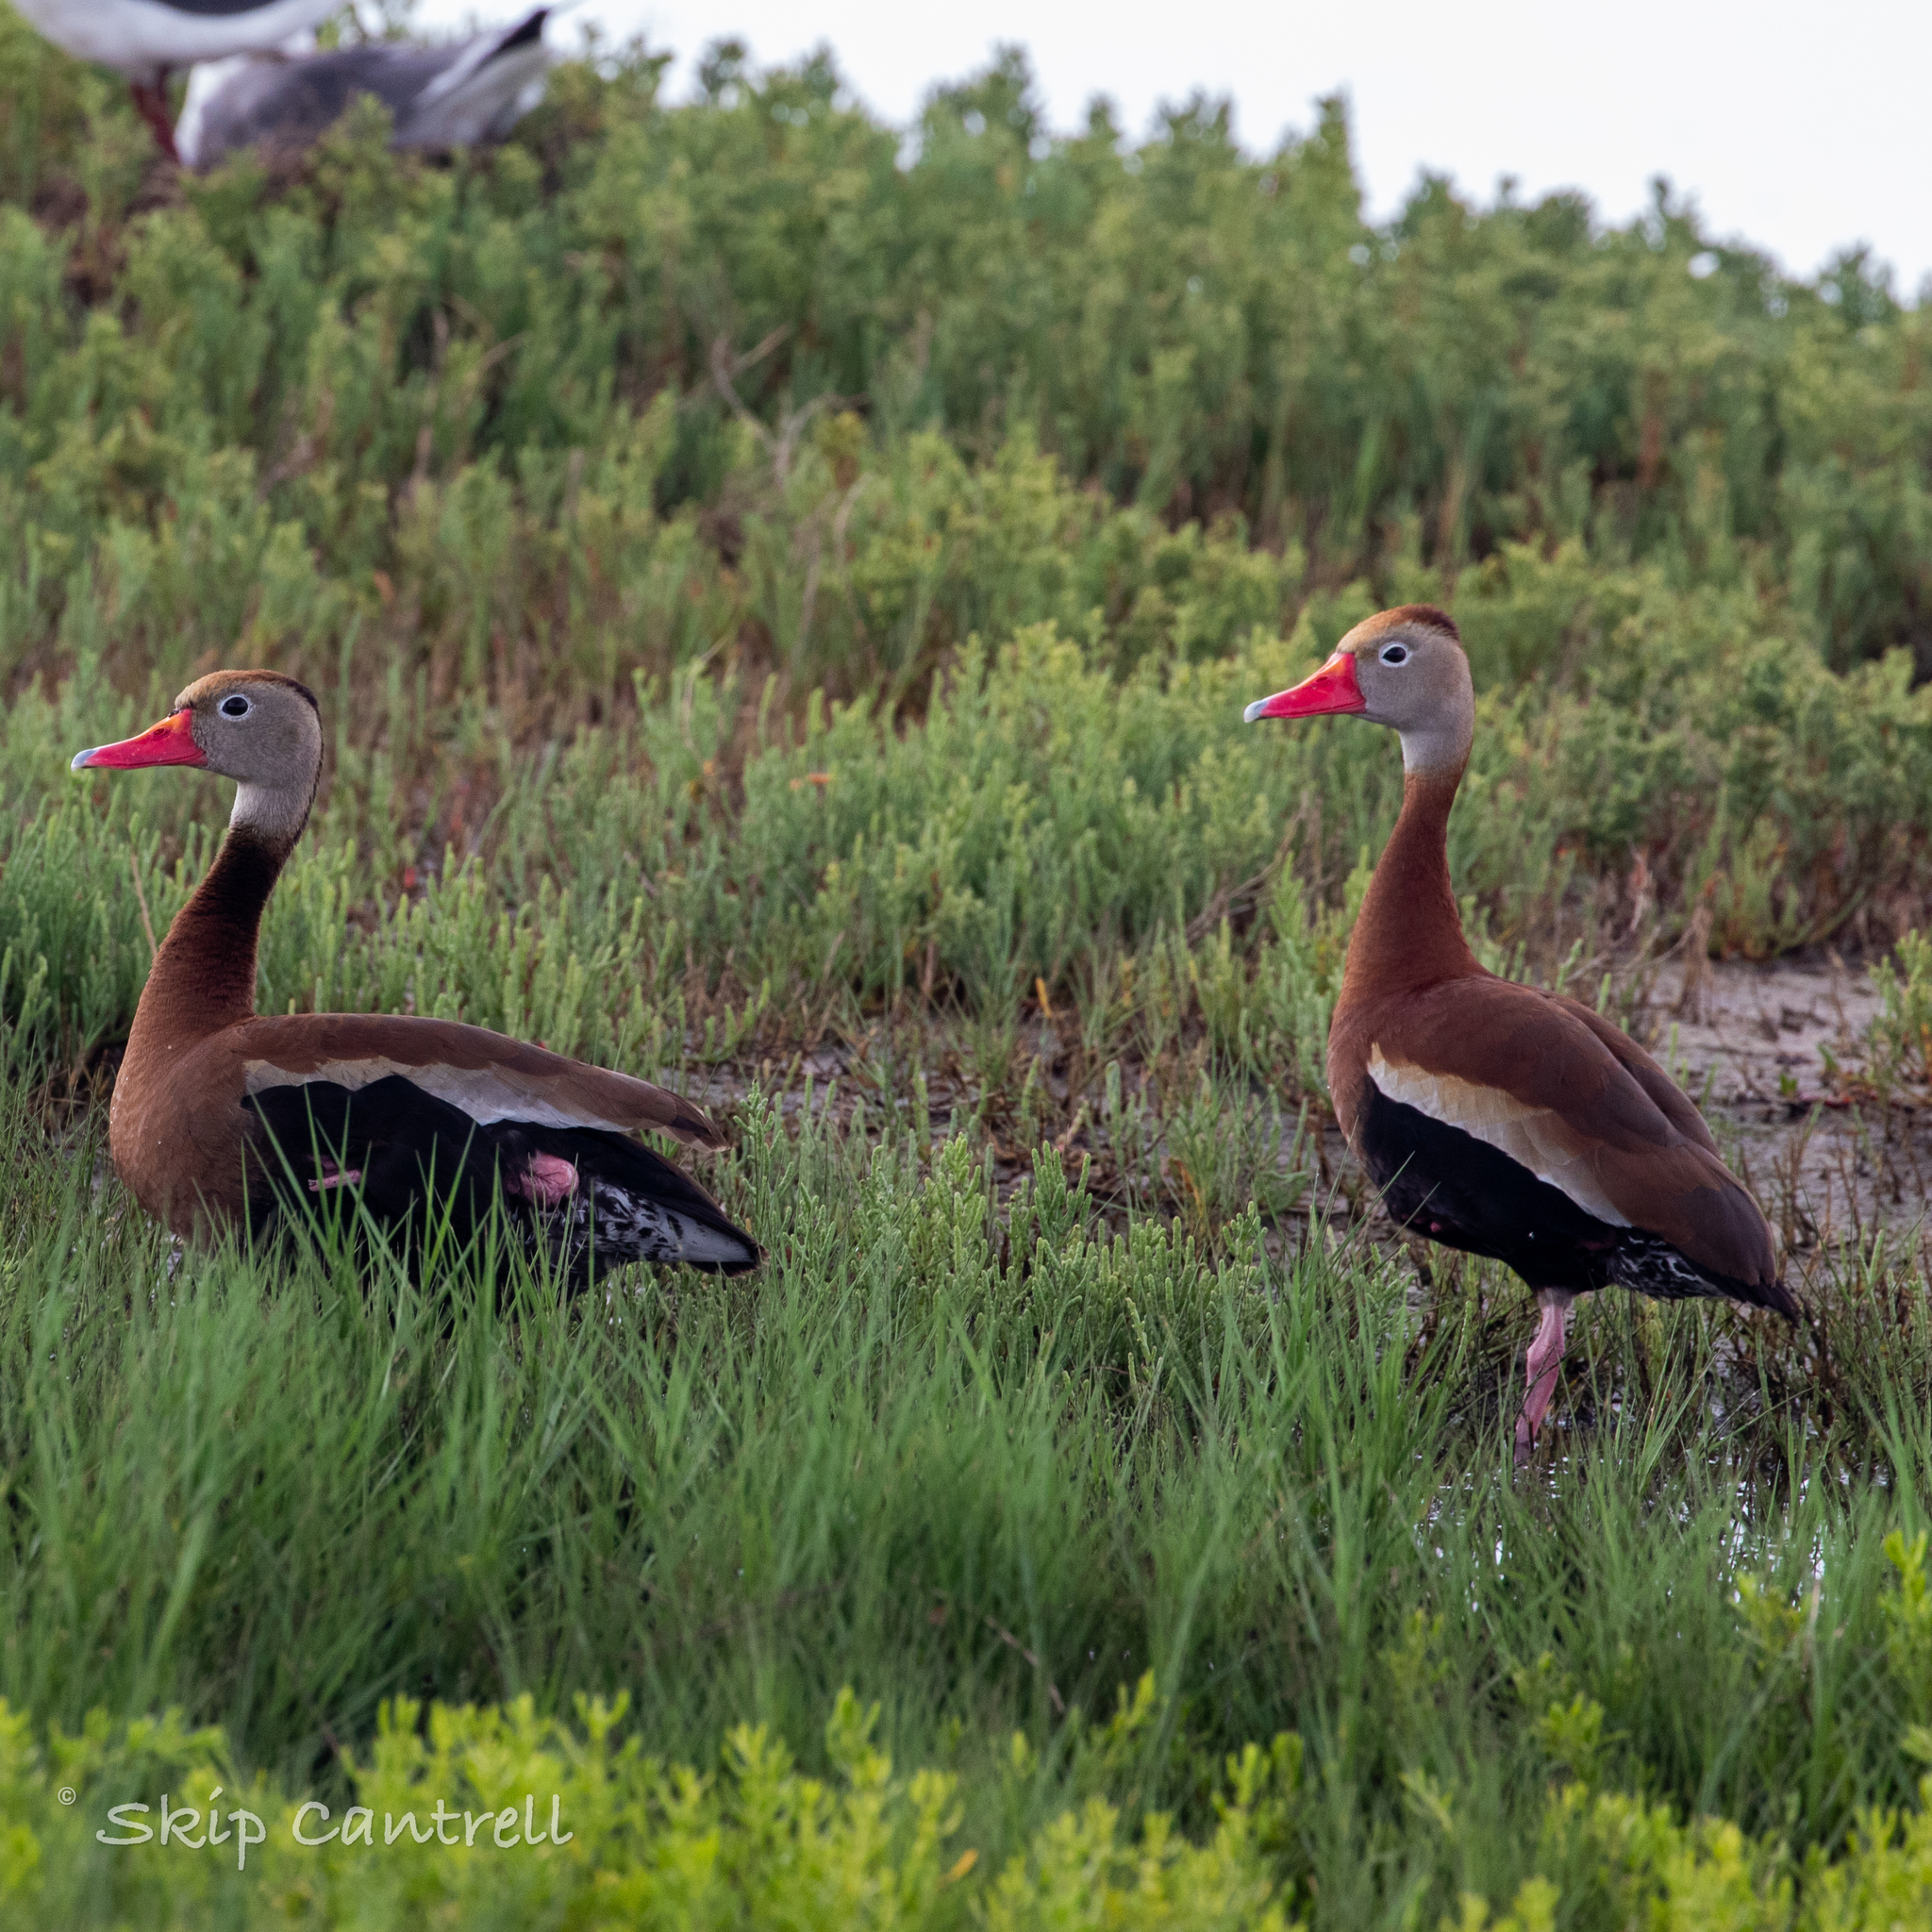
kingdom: Animalia
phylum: Chordata
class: Aves
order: Anseriformes
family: Anatidae
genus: Dendrocygna
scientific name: Dendrocygna autumnalis
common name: Black-bellied whistling duck
